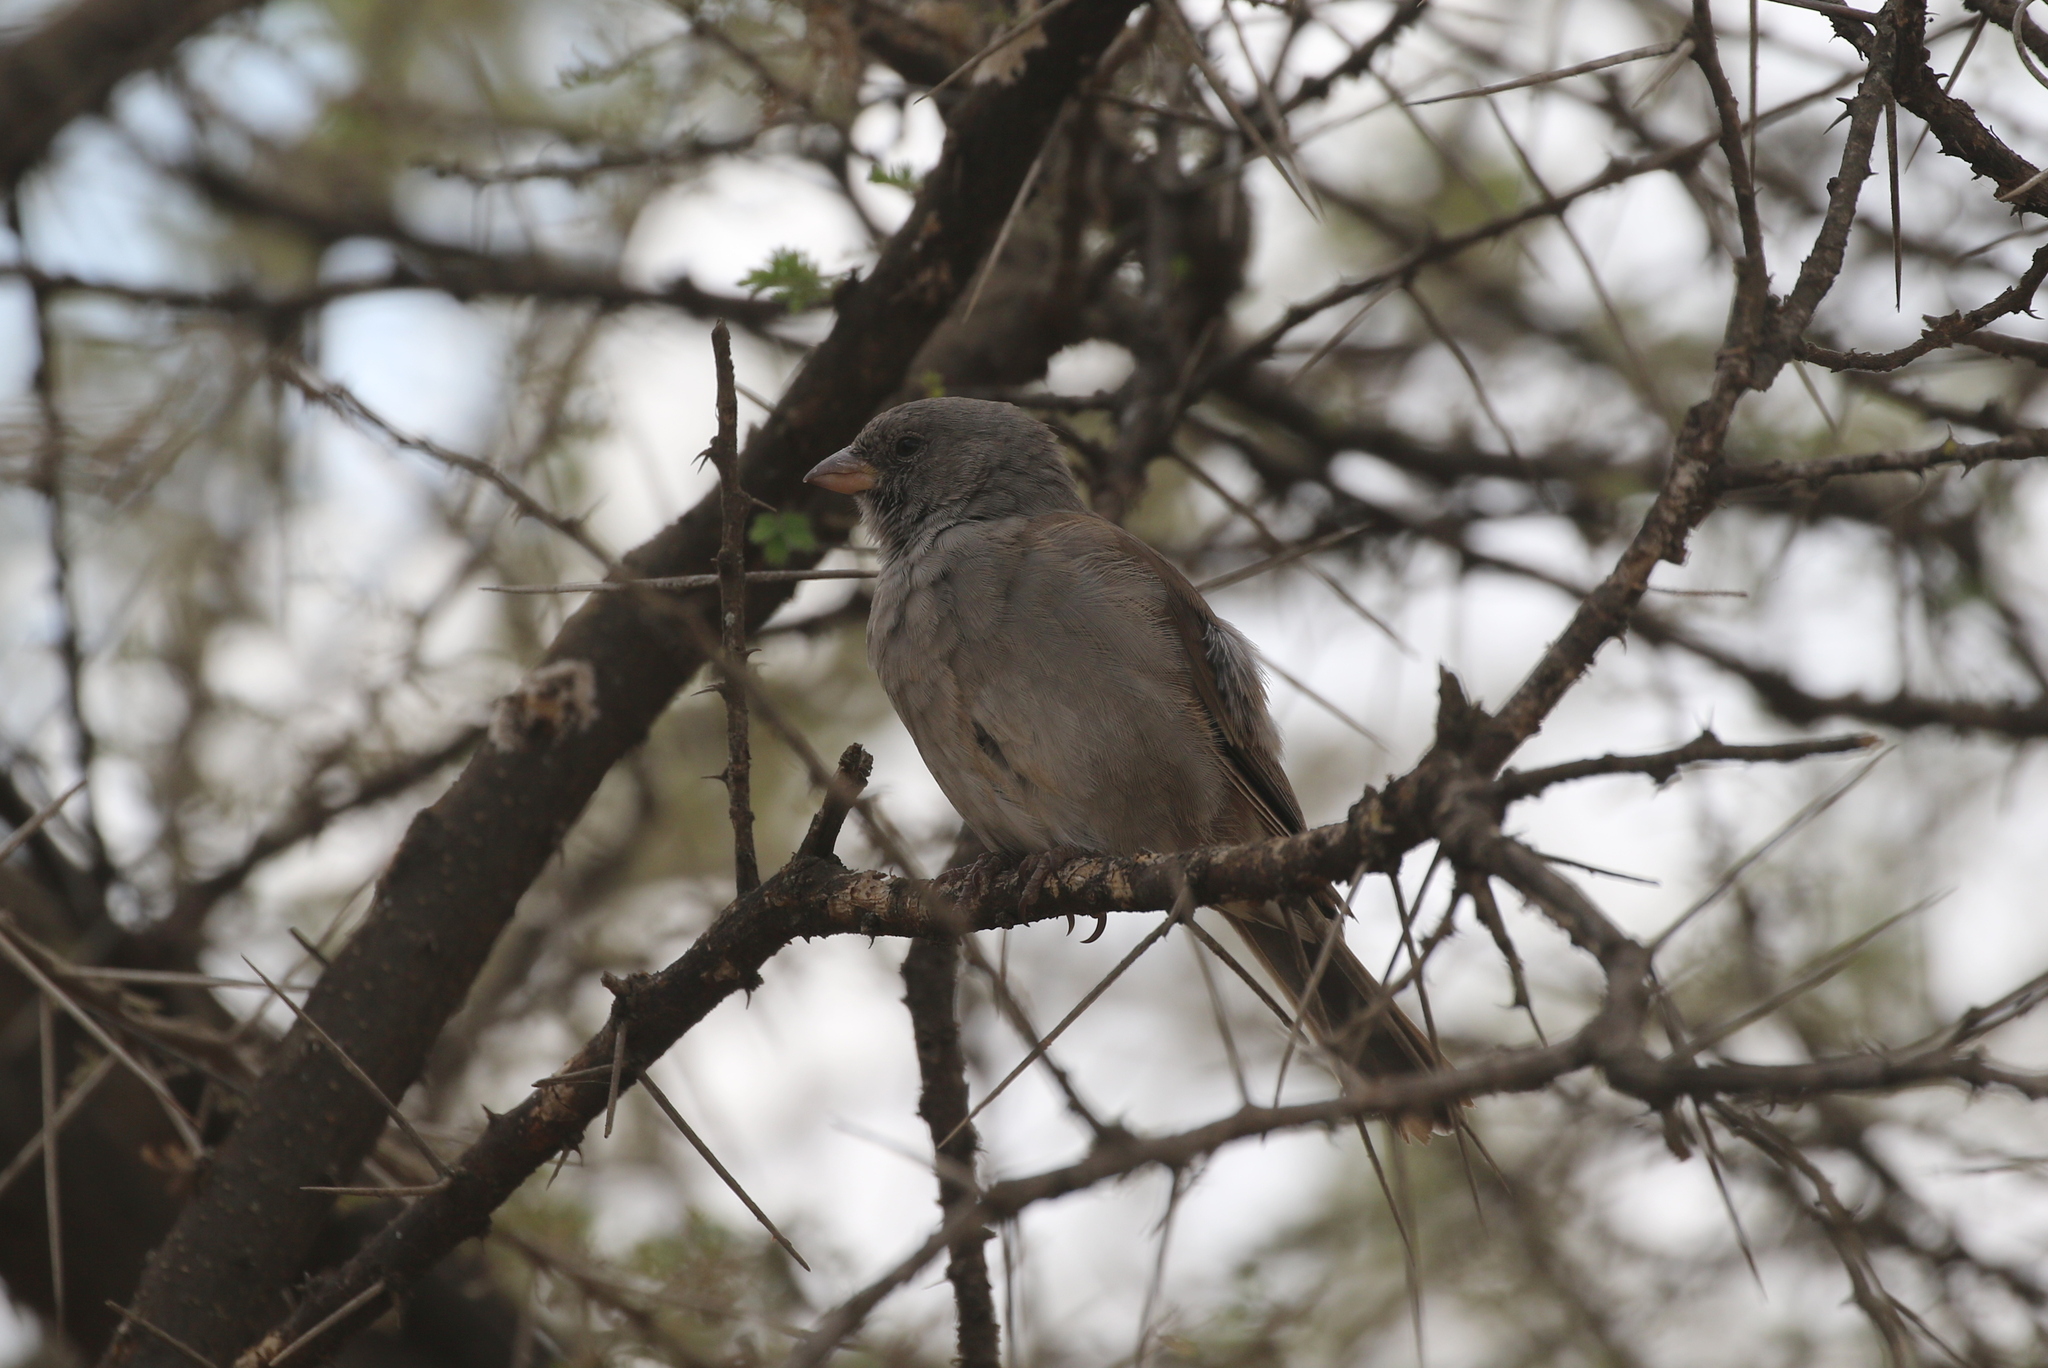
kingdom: Animalia
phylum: Chordata
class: Aves
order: Passeriformes
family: Passeridae
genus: Passer
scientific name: Passer suahelicus
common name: Swahili sparrow
